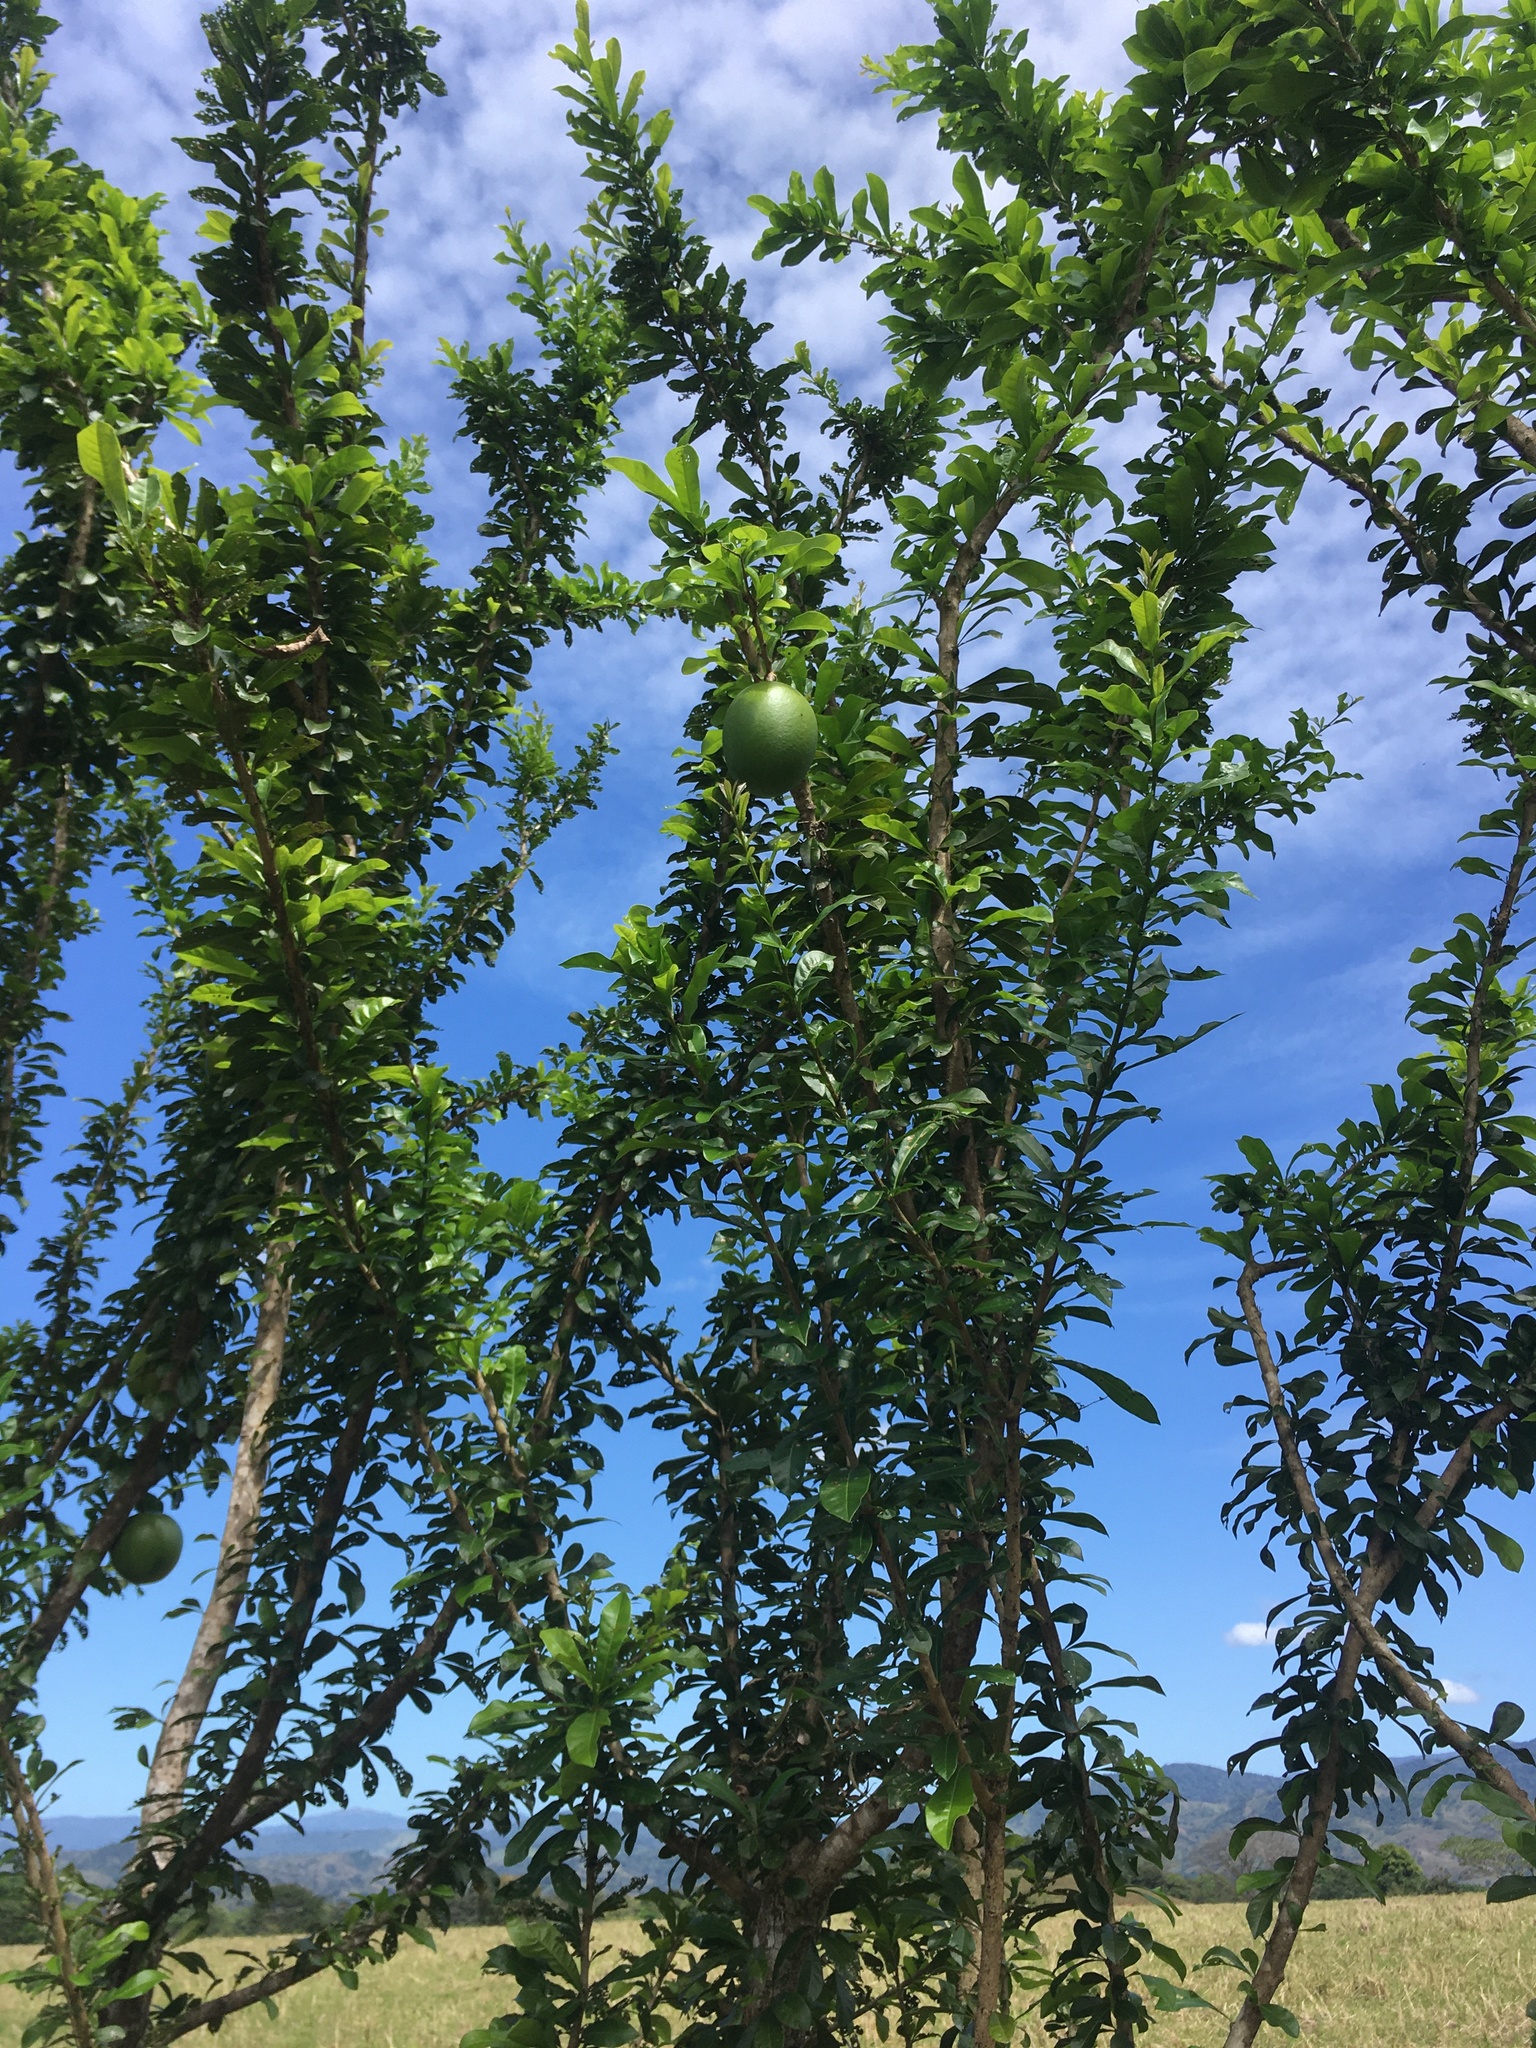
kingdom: Plantae
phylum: Tracheophyta
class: Magnoliopsida
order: Lamiales
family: Bignoniaceae
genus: Crescentia
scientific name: Crescentia cujete
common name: Calabash
